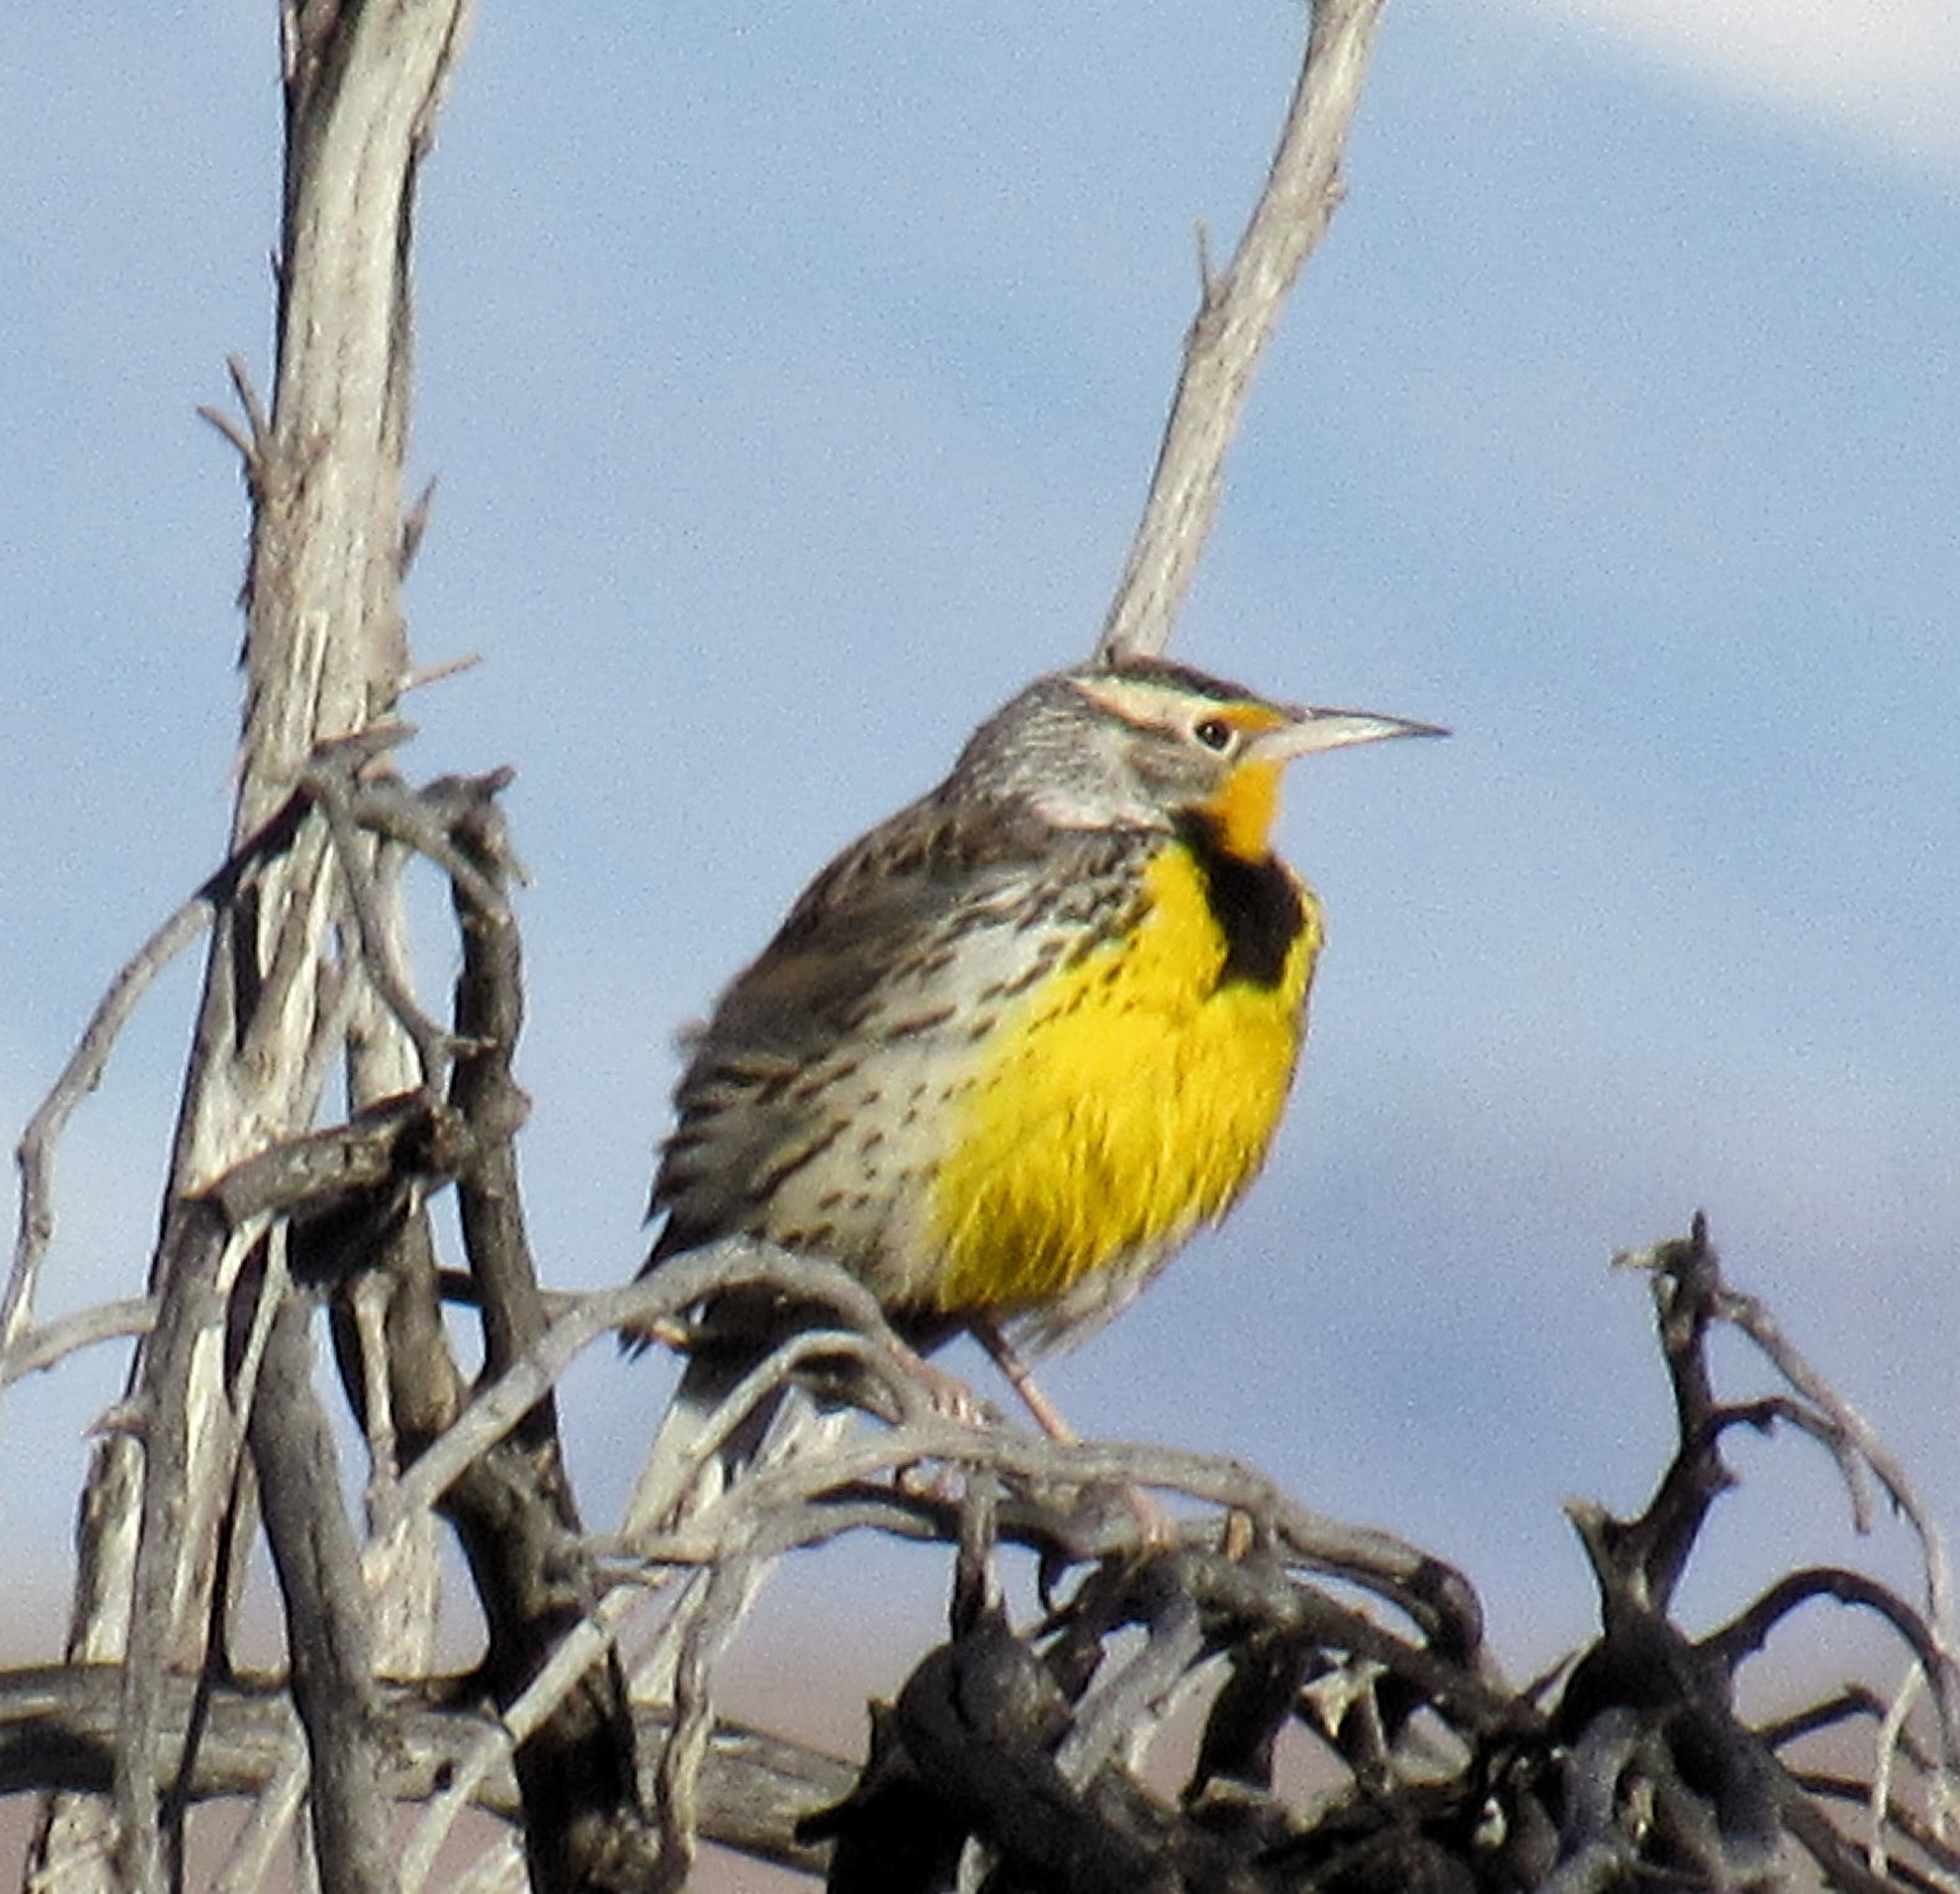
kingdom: Animalia
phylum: Chordata
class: Aves
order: Passeriformes
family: Icteridae
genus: Sturnella
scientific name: Sturnella neglecta
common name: Western meadowlark
